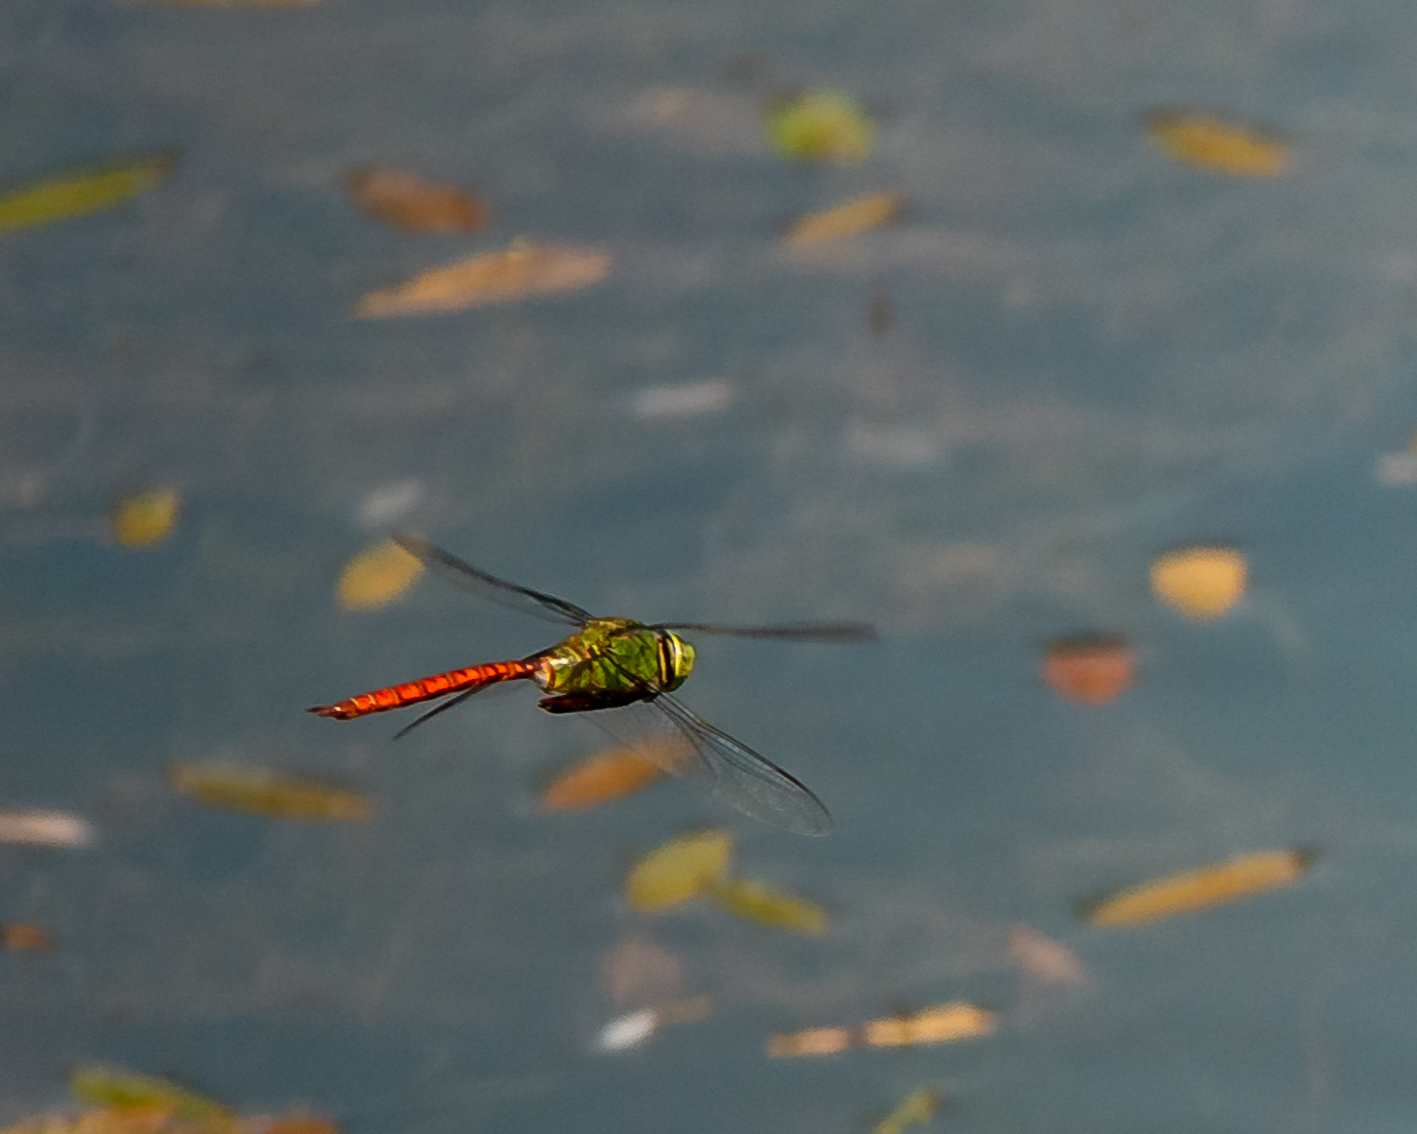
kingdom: Animalia
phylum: Arthropoda
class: Insecta
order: Odonata
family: Aeshnidae
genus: Anax
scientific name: Anax longipes
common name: Comet darner
